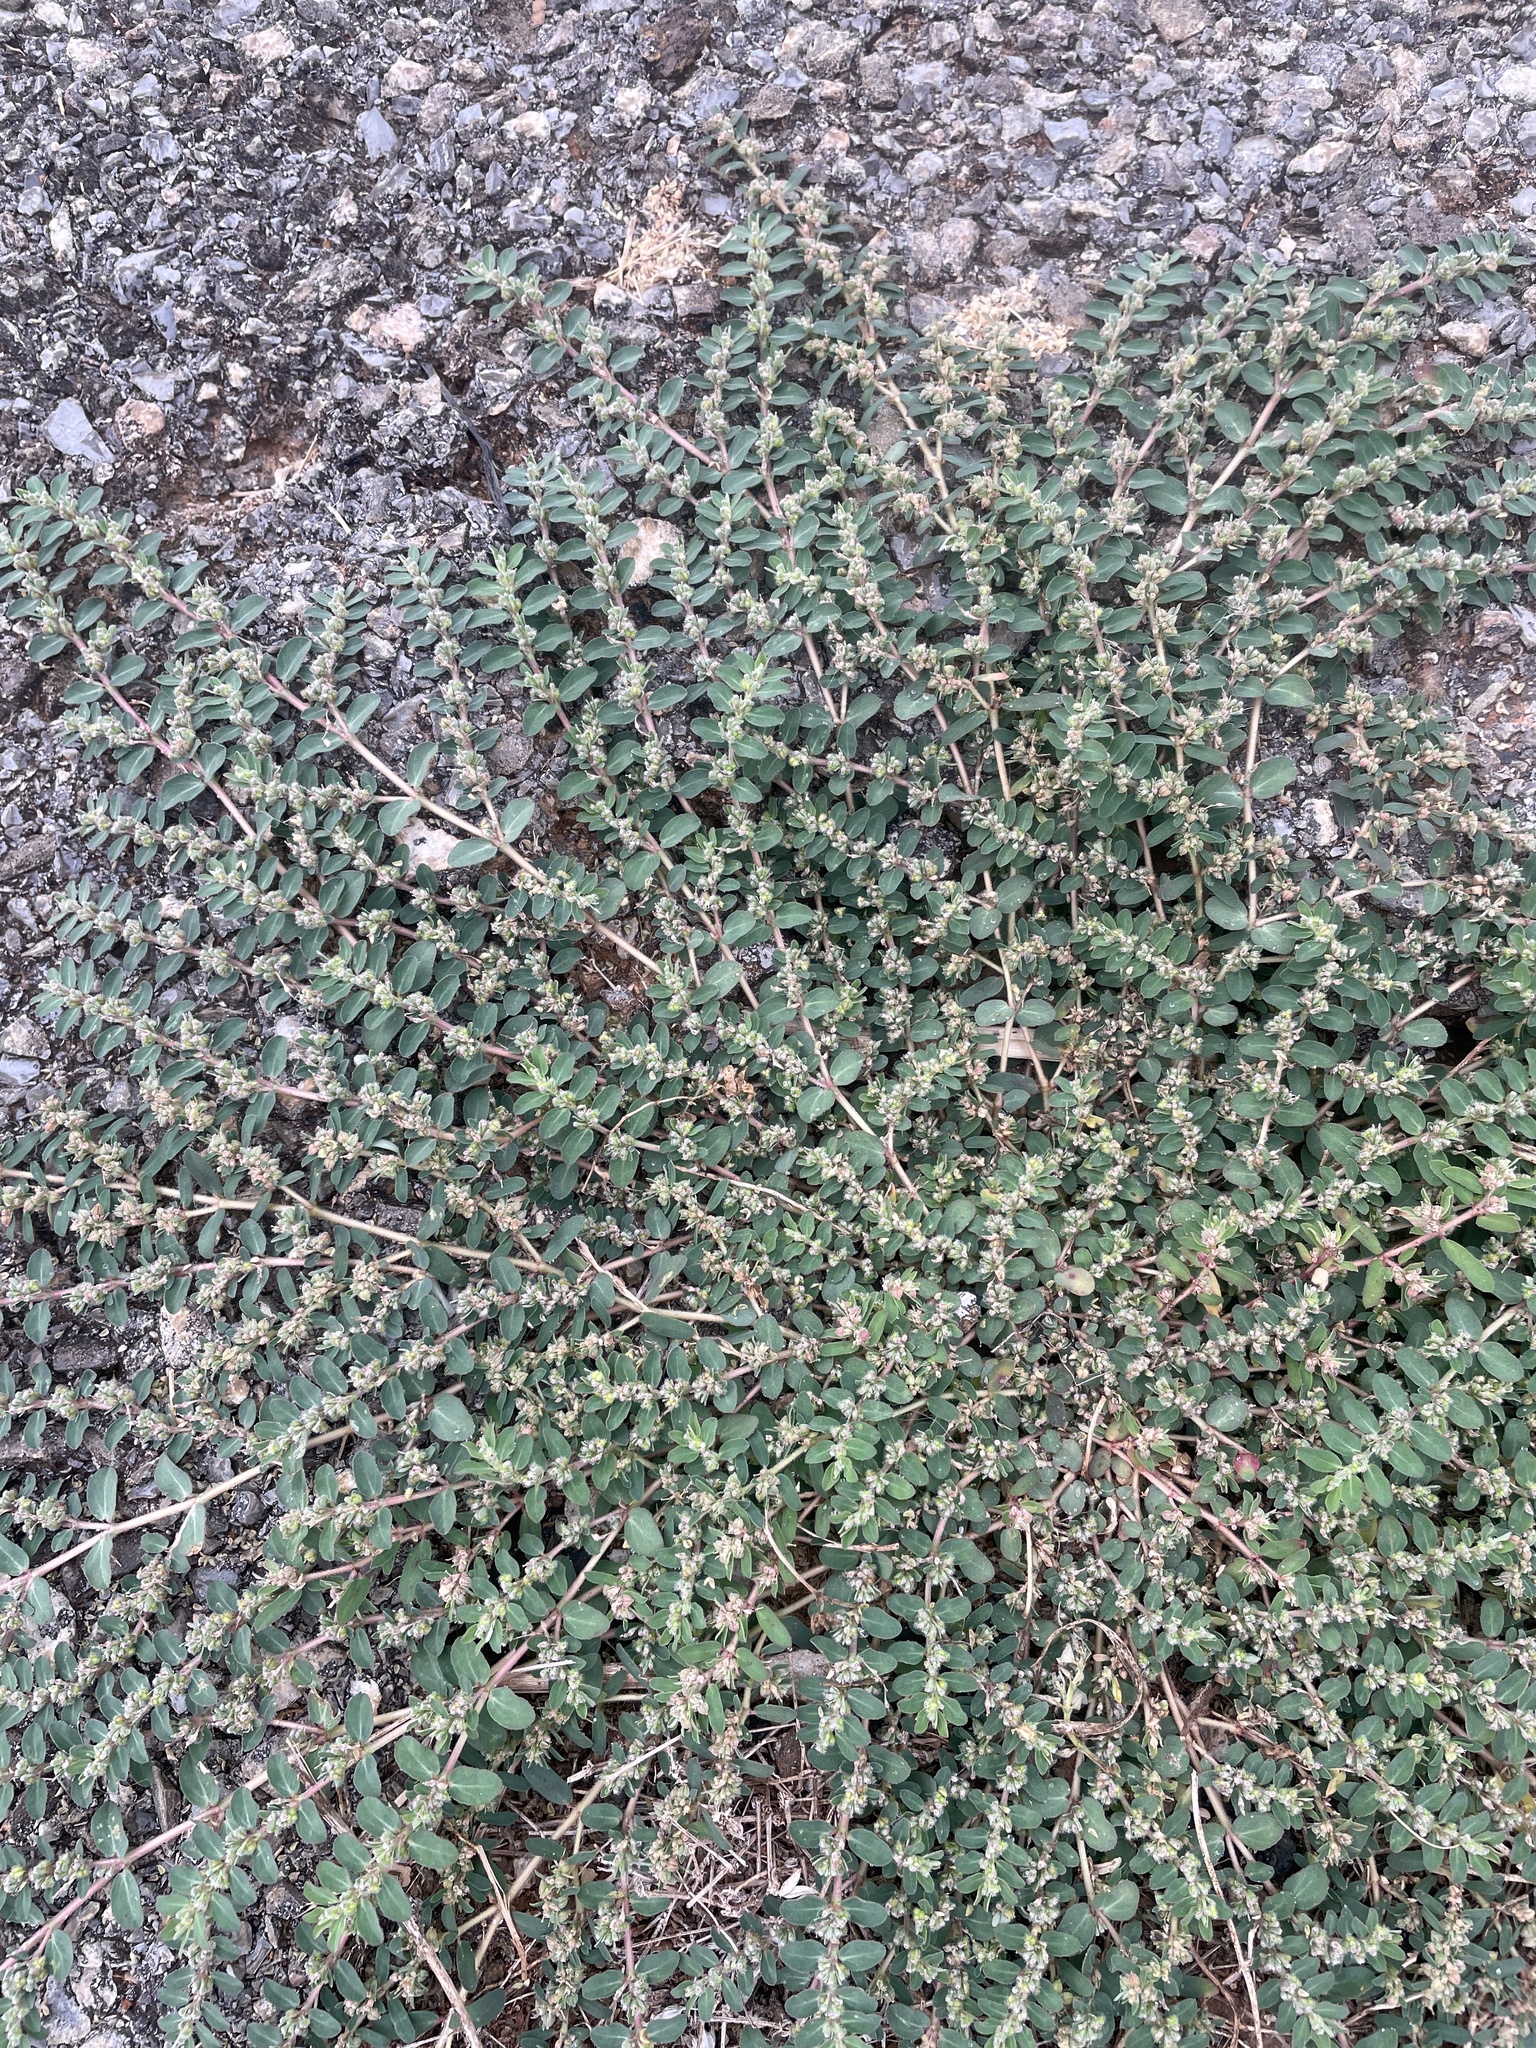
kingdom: Plantae
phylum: Tracheophyta
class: Magnoliopsida
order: Malpighiales
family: Euphorbiaceae
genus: Euphorbia
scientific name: Euphorbia prostrata
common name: Prostrate sandmat
